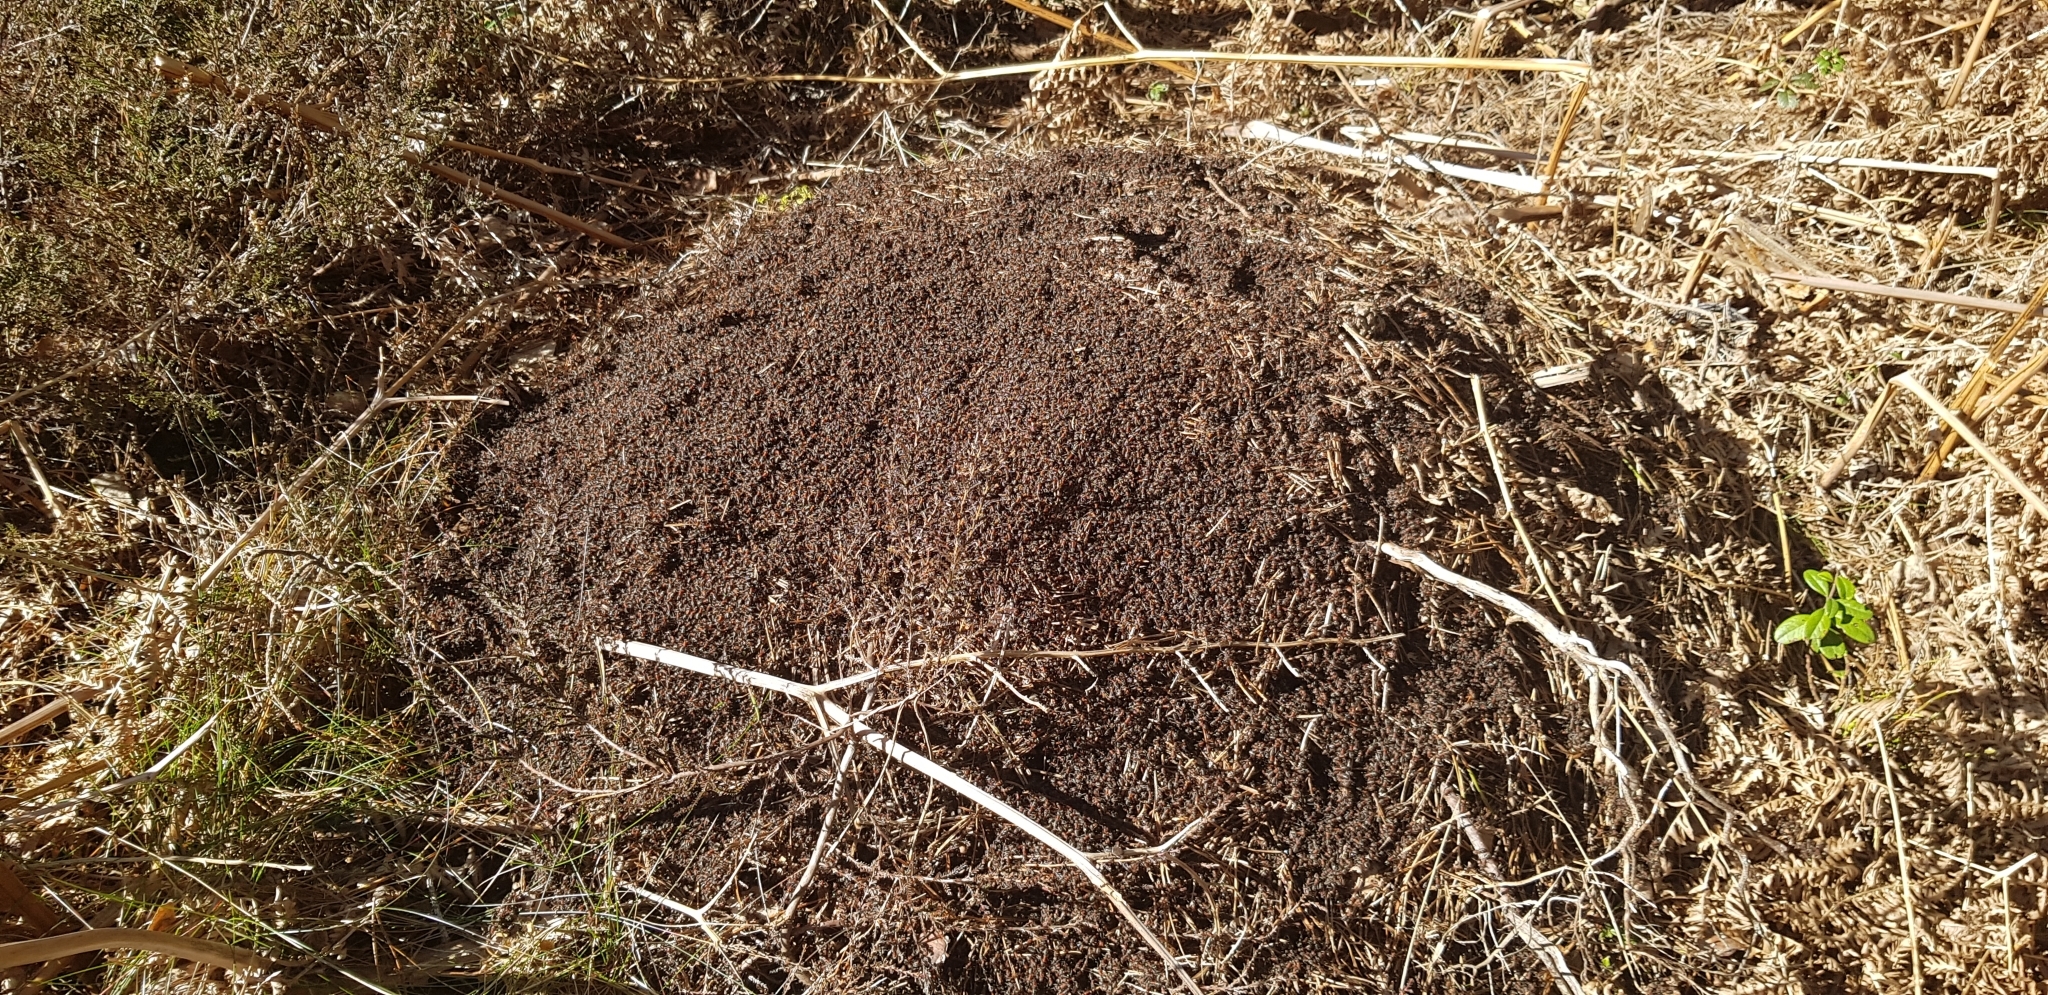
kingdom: Animalia
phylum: Arthropoda
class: Insecta
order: Hymenoptera
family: Formicidae
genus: Formica
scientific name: Formica
